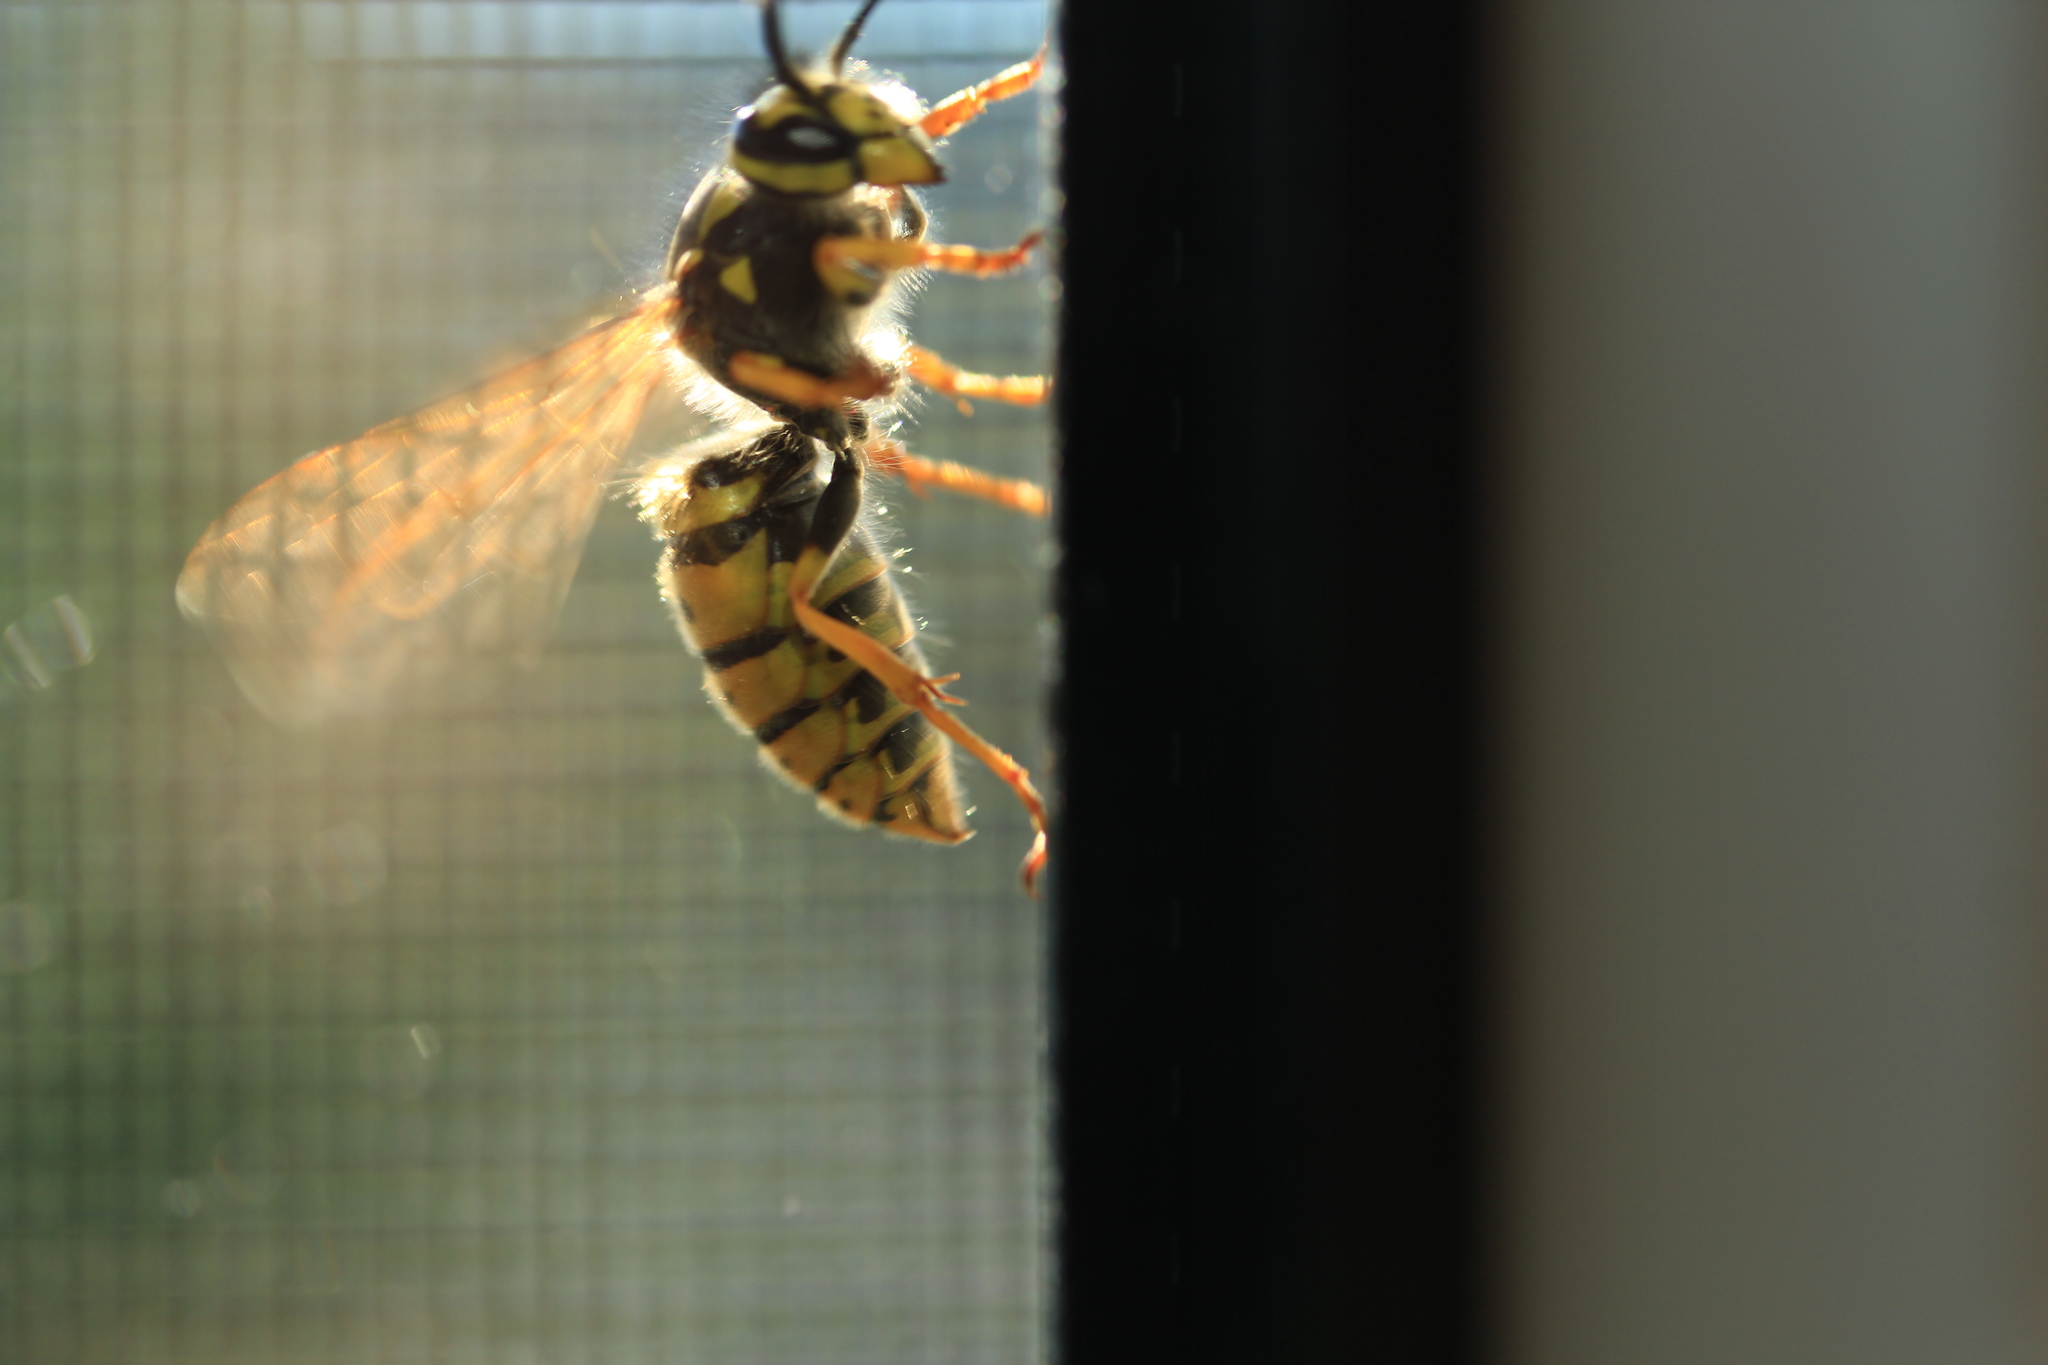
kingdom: Animalia
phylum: Arthropoda
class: Insecta
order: Hymenoptera
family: Vespidae
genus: Vespula
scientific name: Vespula germanica
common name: German wasp
